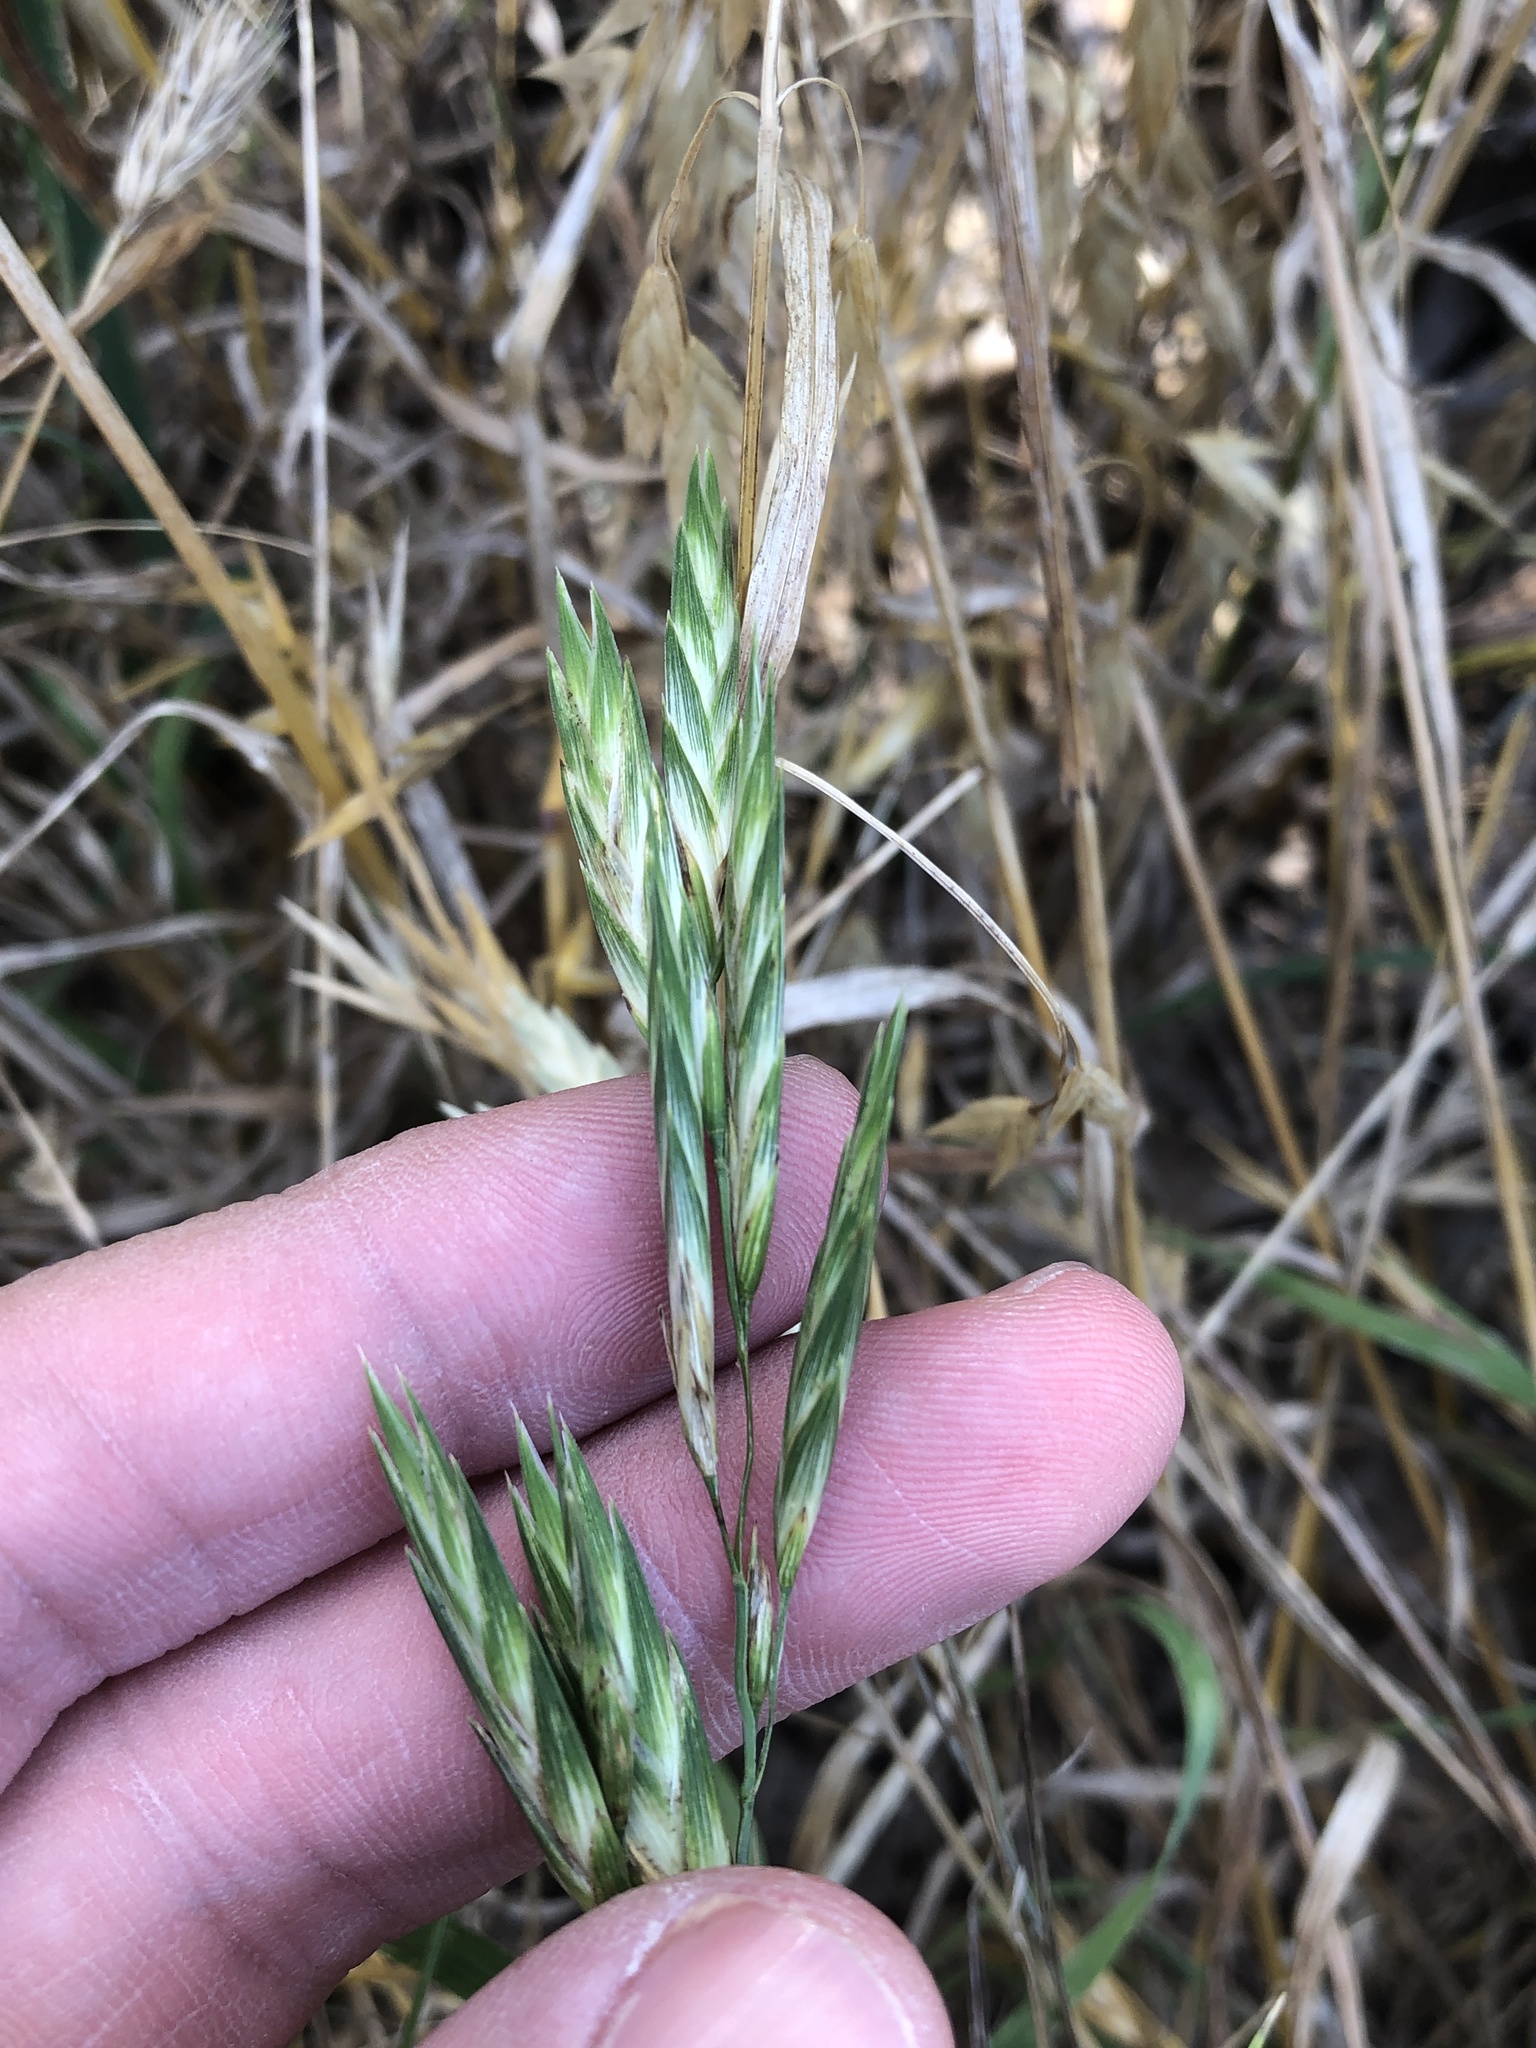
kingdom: Plantae
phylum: Tracheophyta
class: Liliopsida
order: Poales
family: Poaceae
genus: Bromus
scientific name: Bromus catharticus
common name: Rescuegrass
